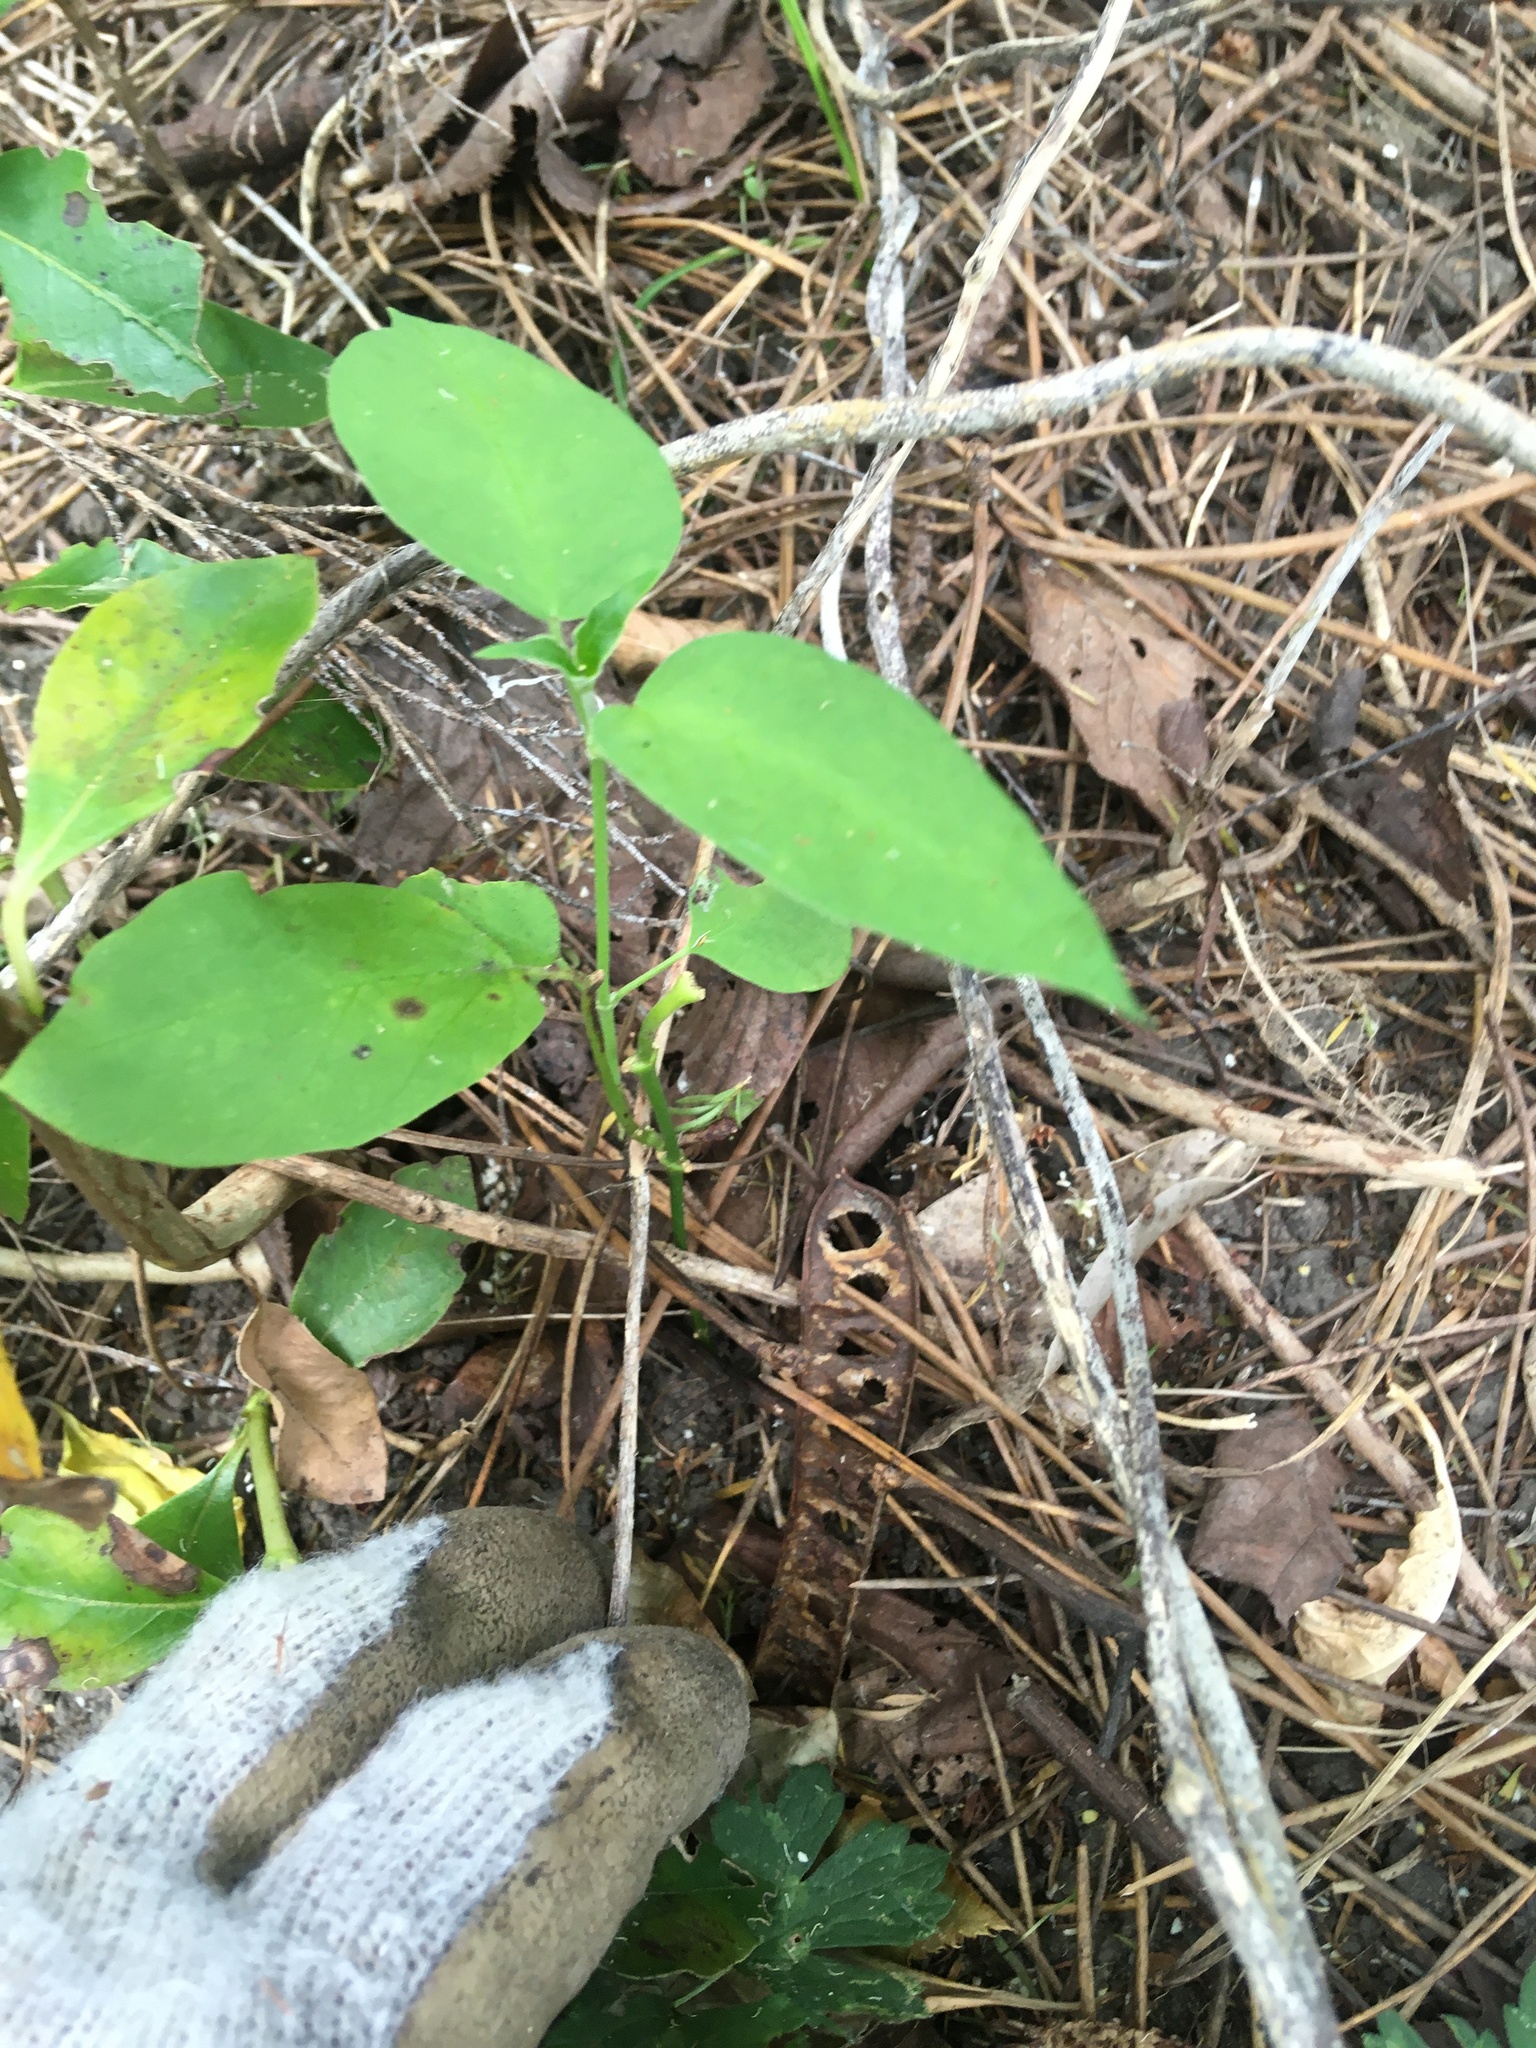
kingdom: Plantae
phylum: Tracheophyta
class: Magnoliopsida
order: Gentianales
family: Apocynaceae
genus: Araujia
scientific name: Araujia sericifera
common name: White bladderflower
